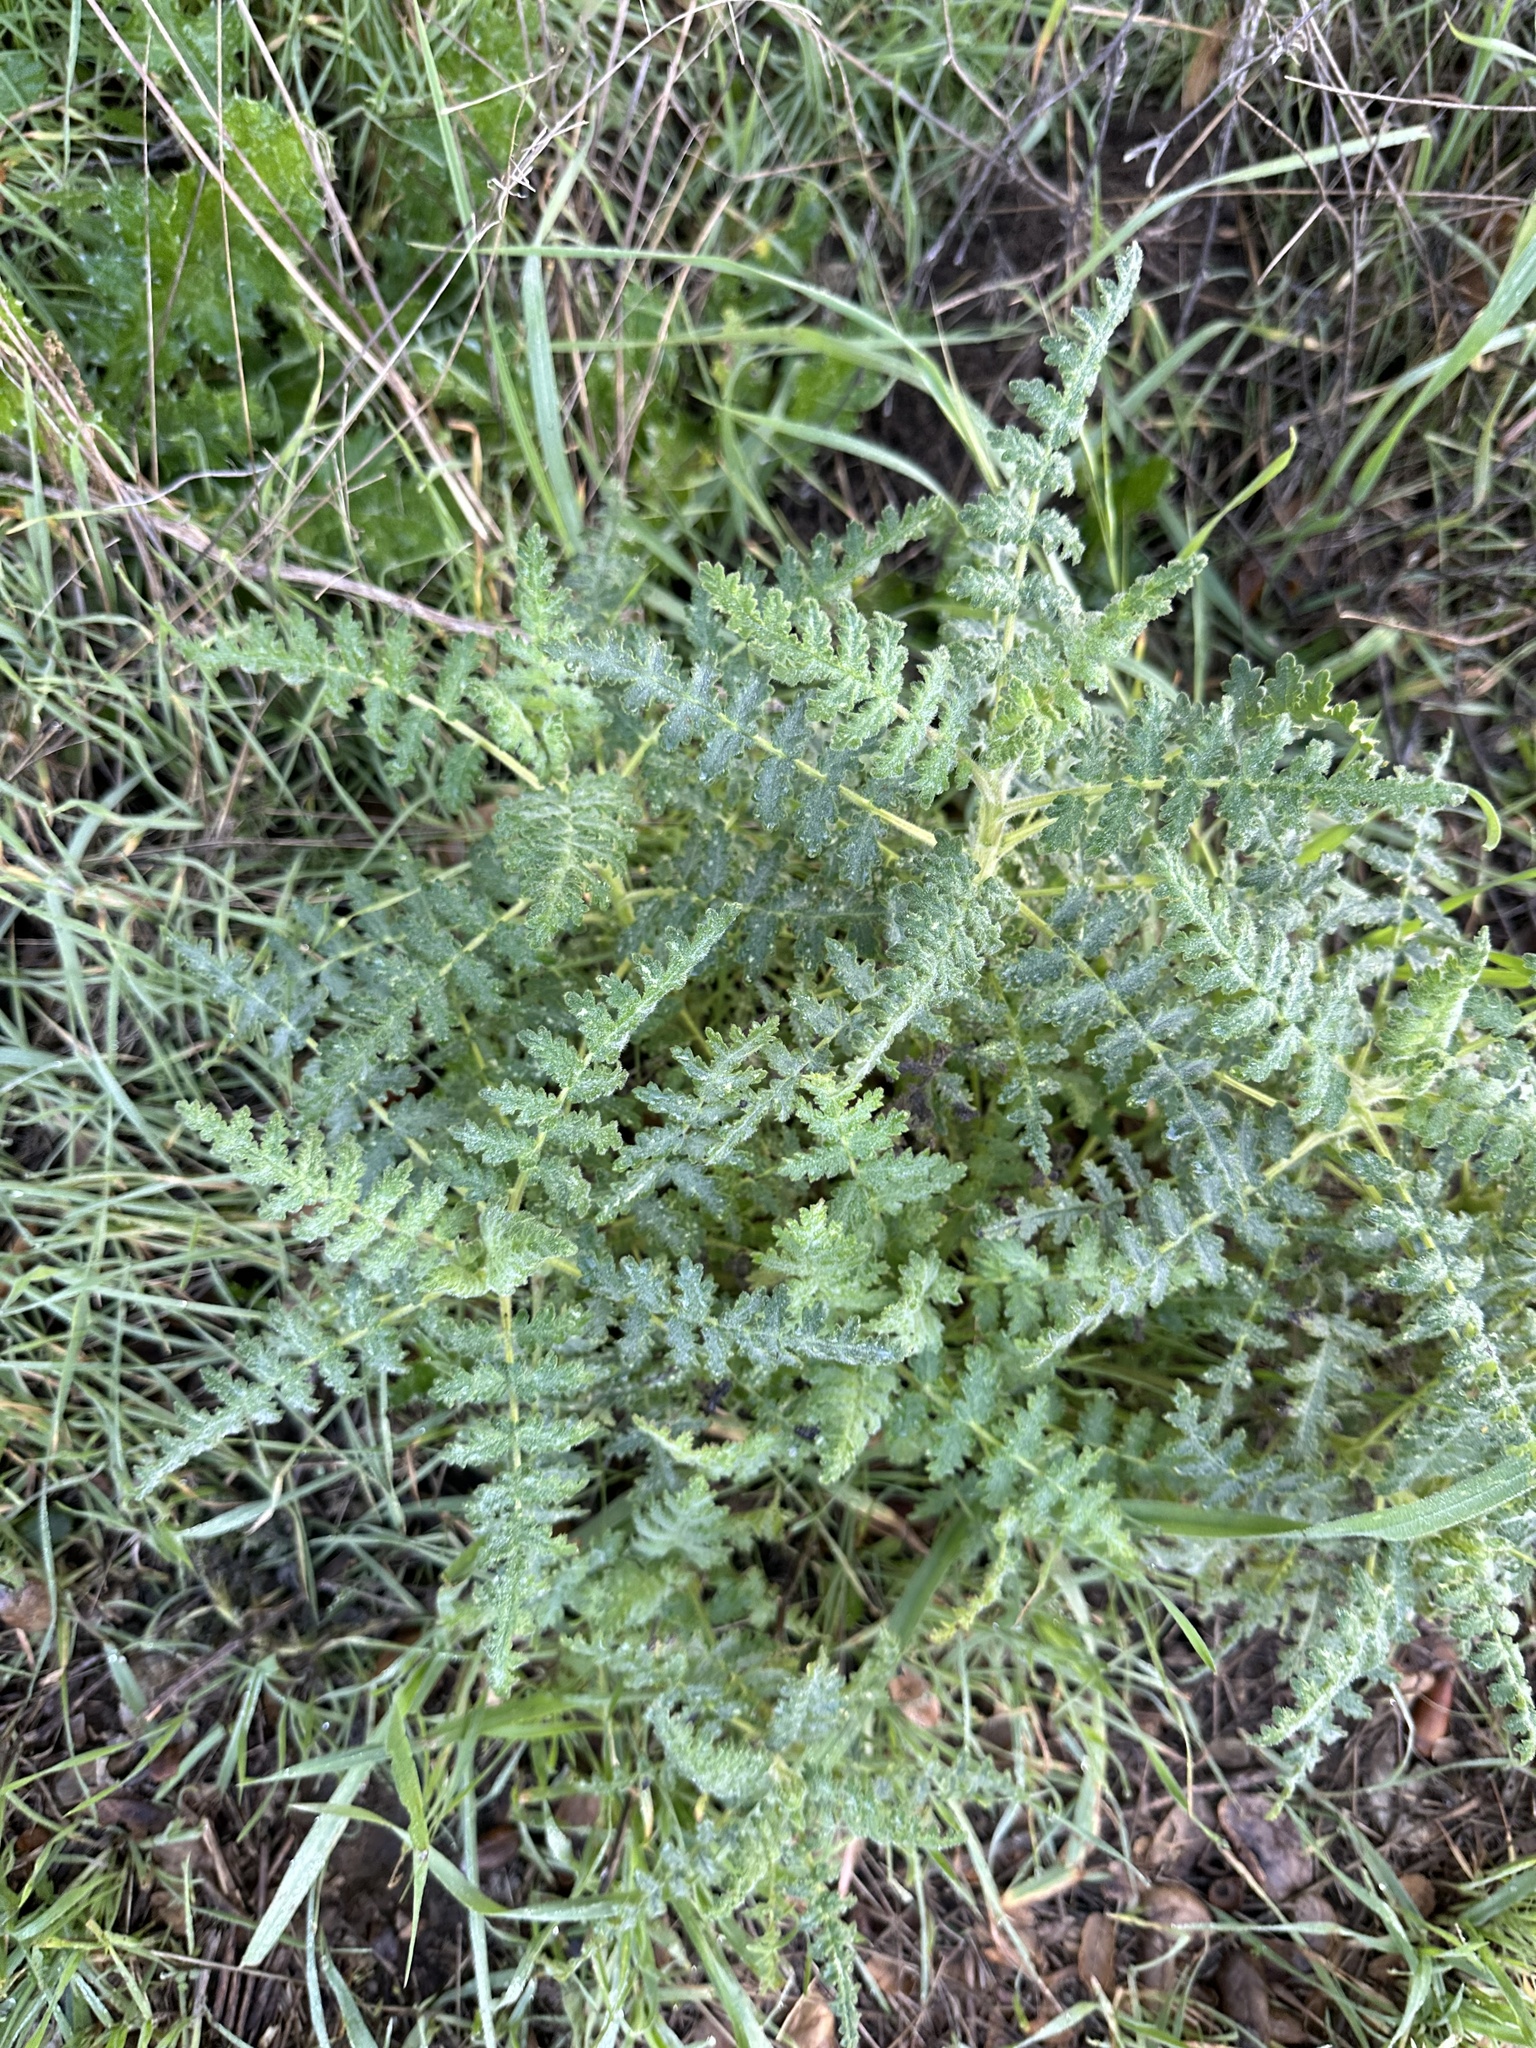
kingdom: Plantae
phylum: Tracheophyta
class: Magnoliopsida
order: Boraginales
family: Hydrophyllaceae
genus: Eucrypta
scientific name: Eucrypta chrysanthemifolia
